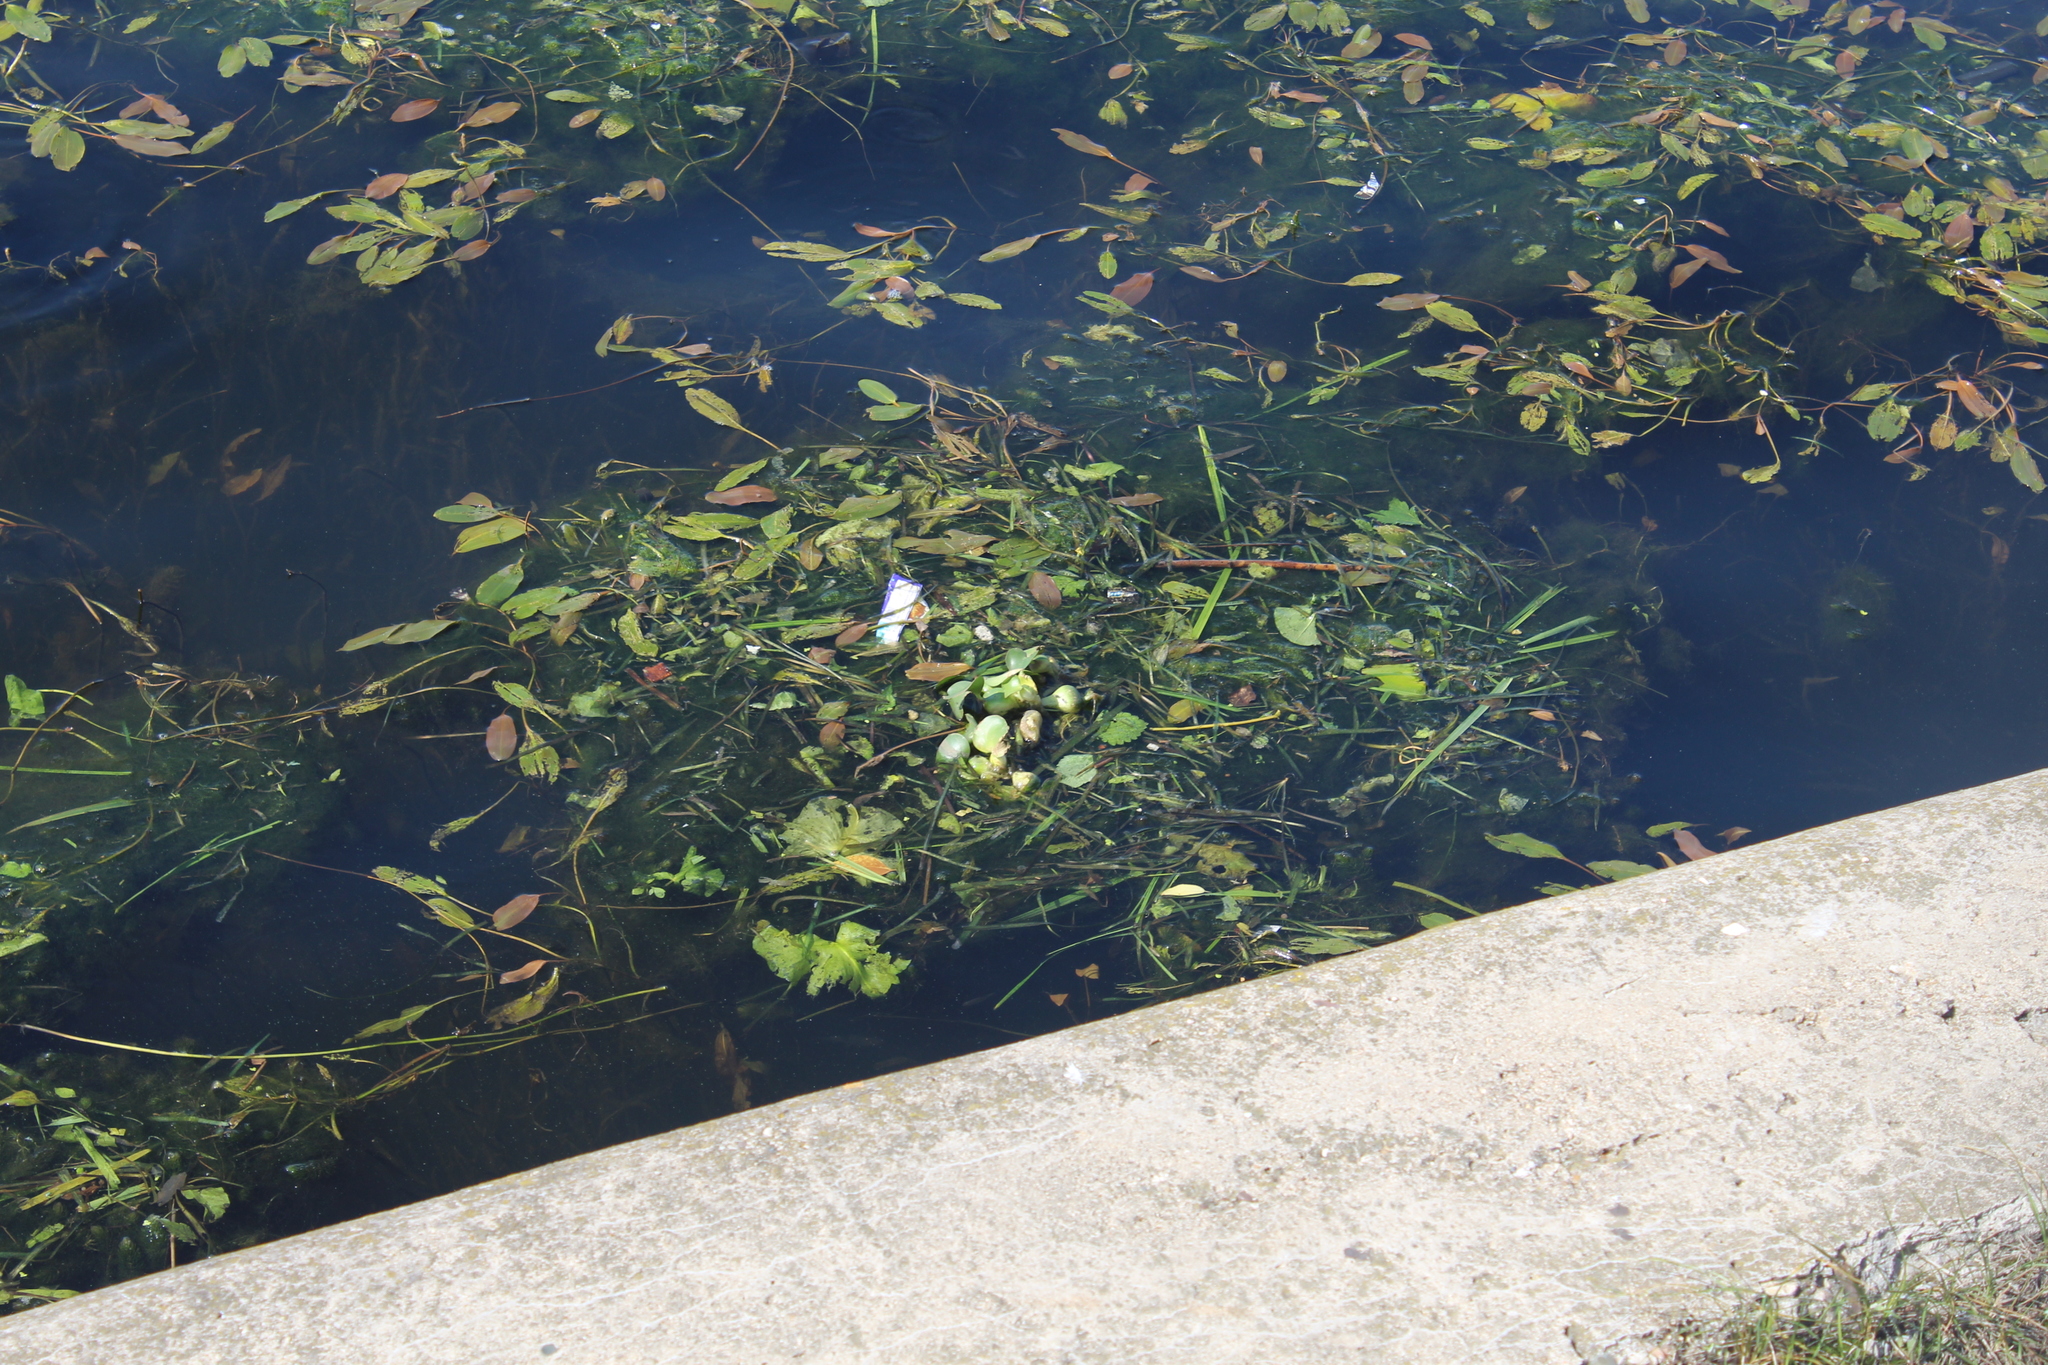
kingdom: Plantae
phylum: Tracheophyta
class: Liliopsida
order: Commelinales
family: Pontederiaceae
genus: Pontederia
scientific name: Pontederia crassipes
